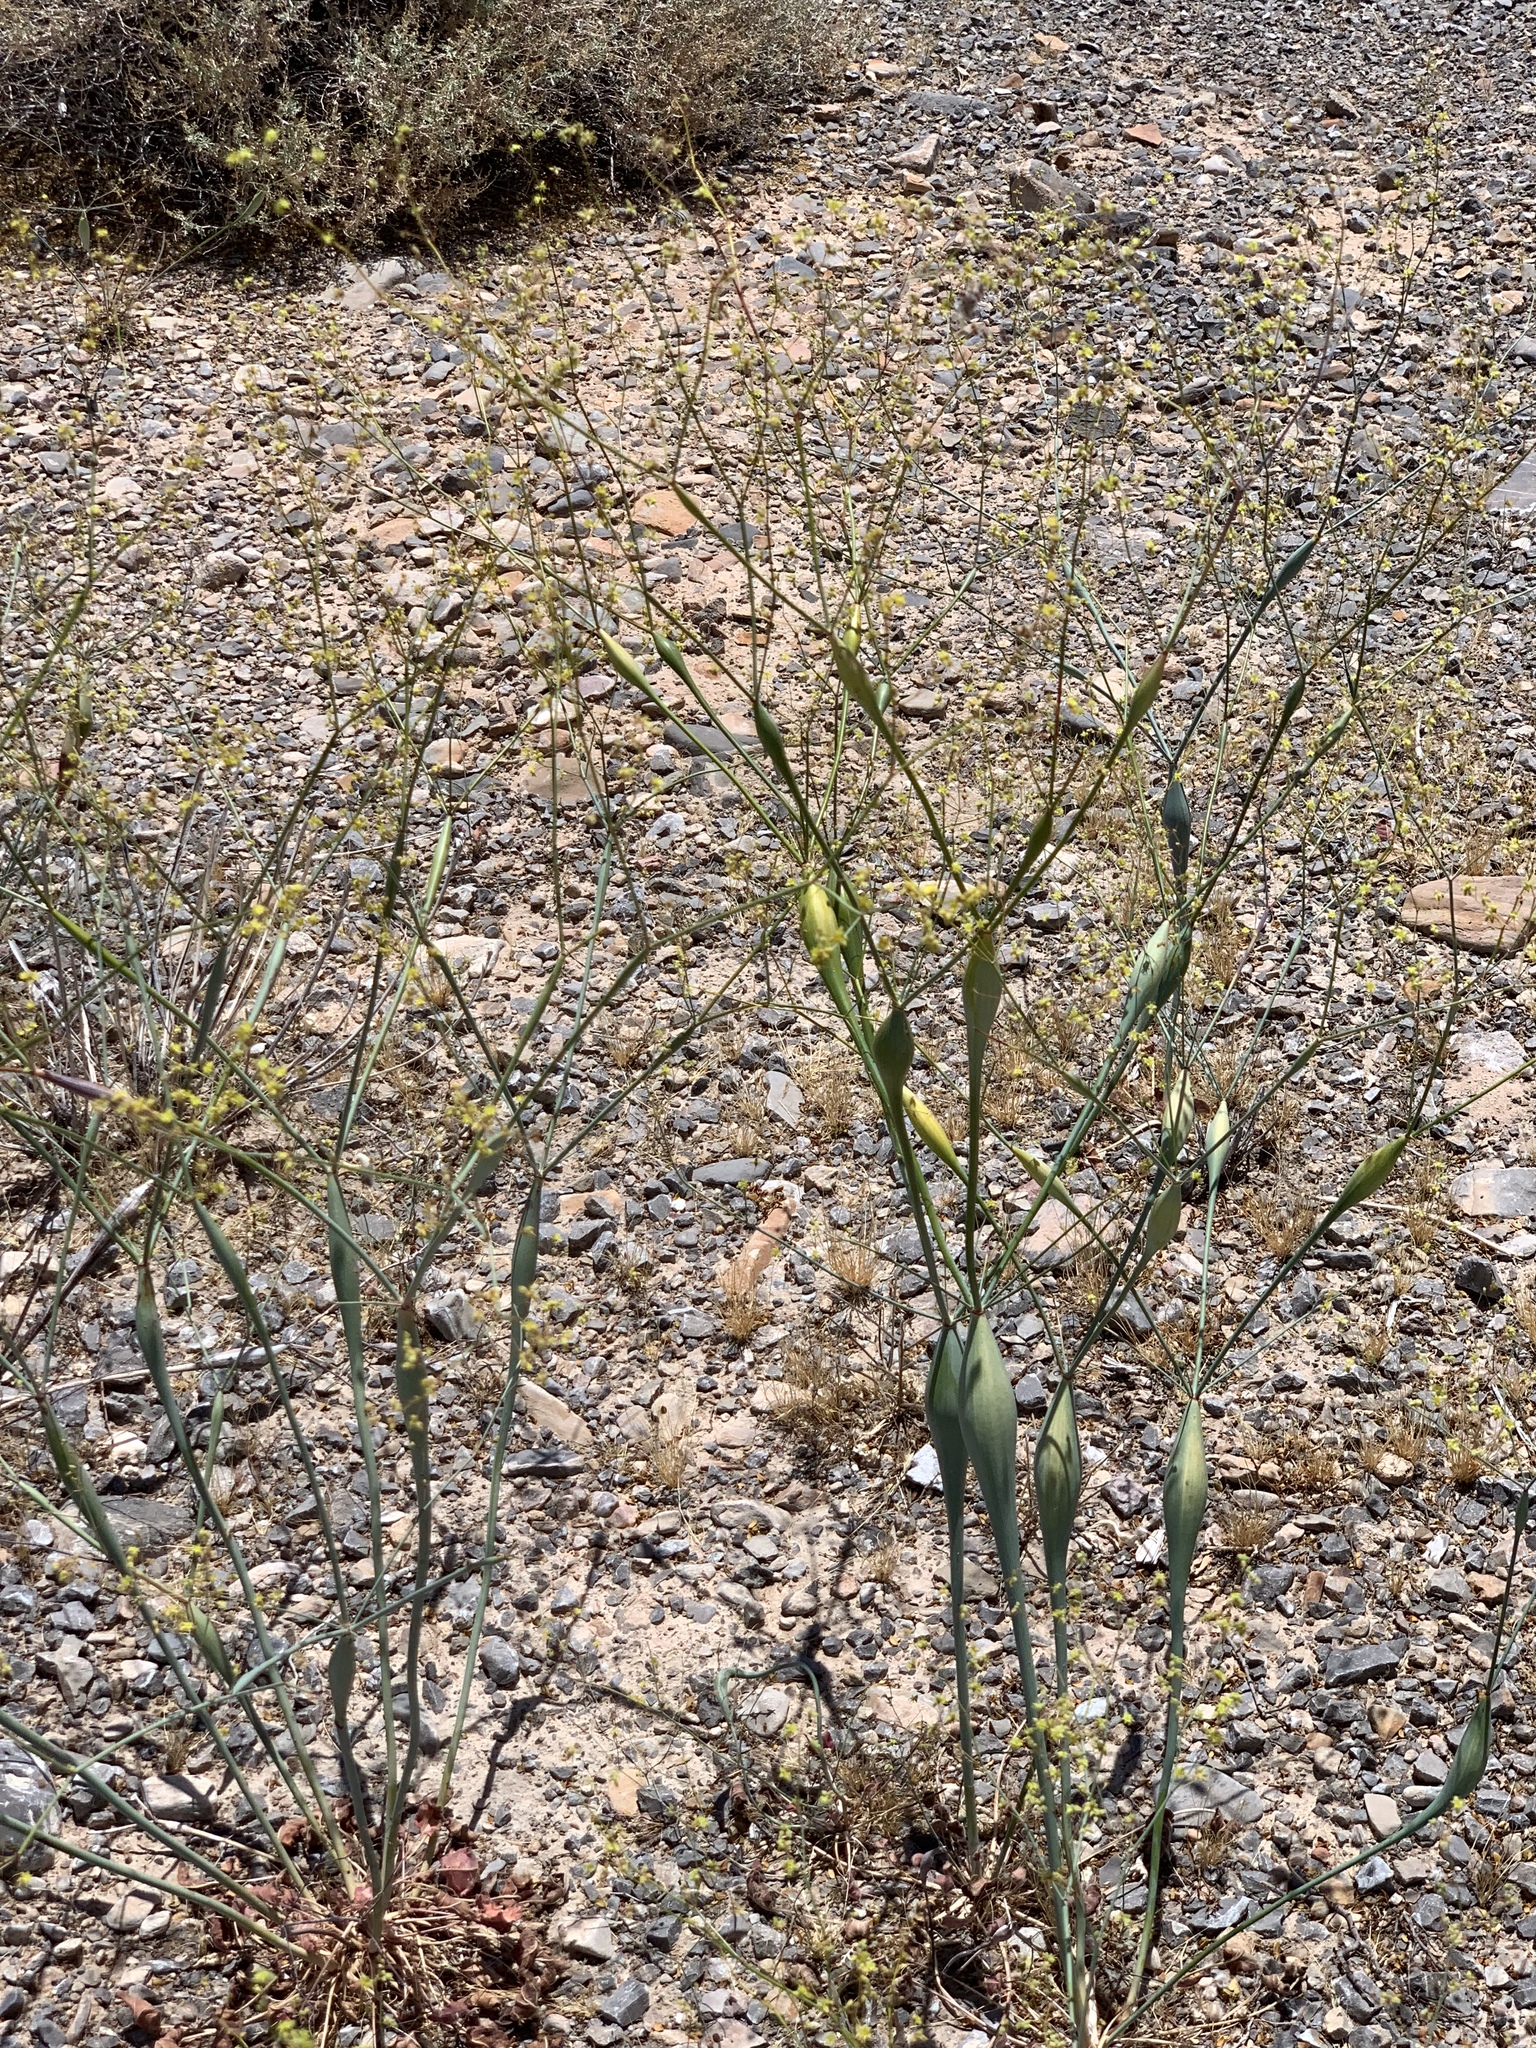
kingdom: Plantae
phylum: Tracheophyta
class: Magnoliopsida
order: Caryophyllales
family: Polygonaceae
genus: Eriogonum
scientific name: Eriogonum inflatum
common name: Desert trumpet
